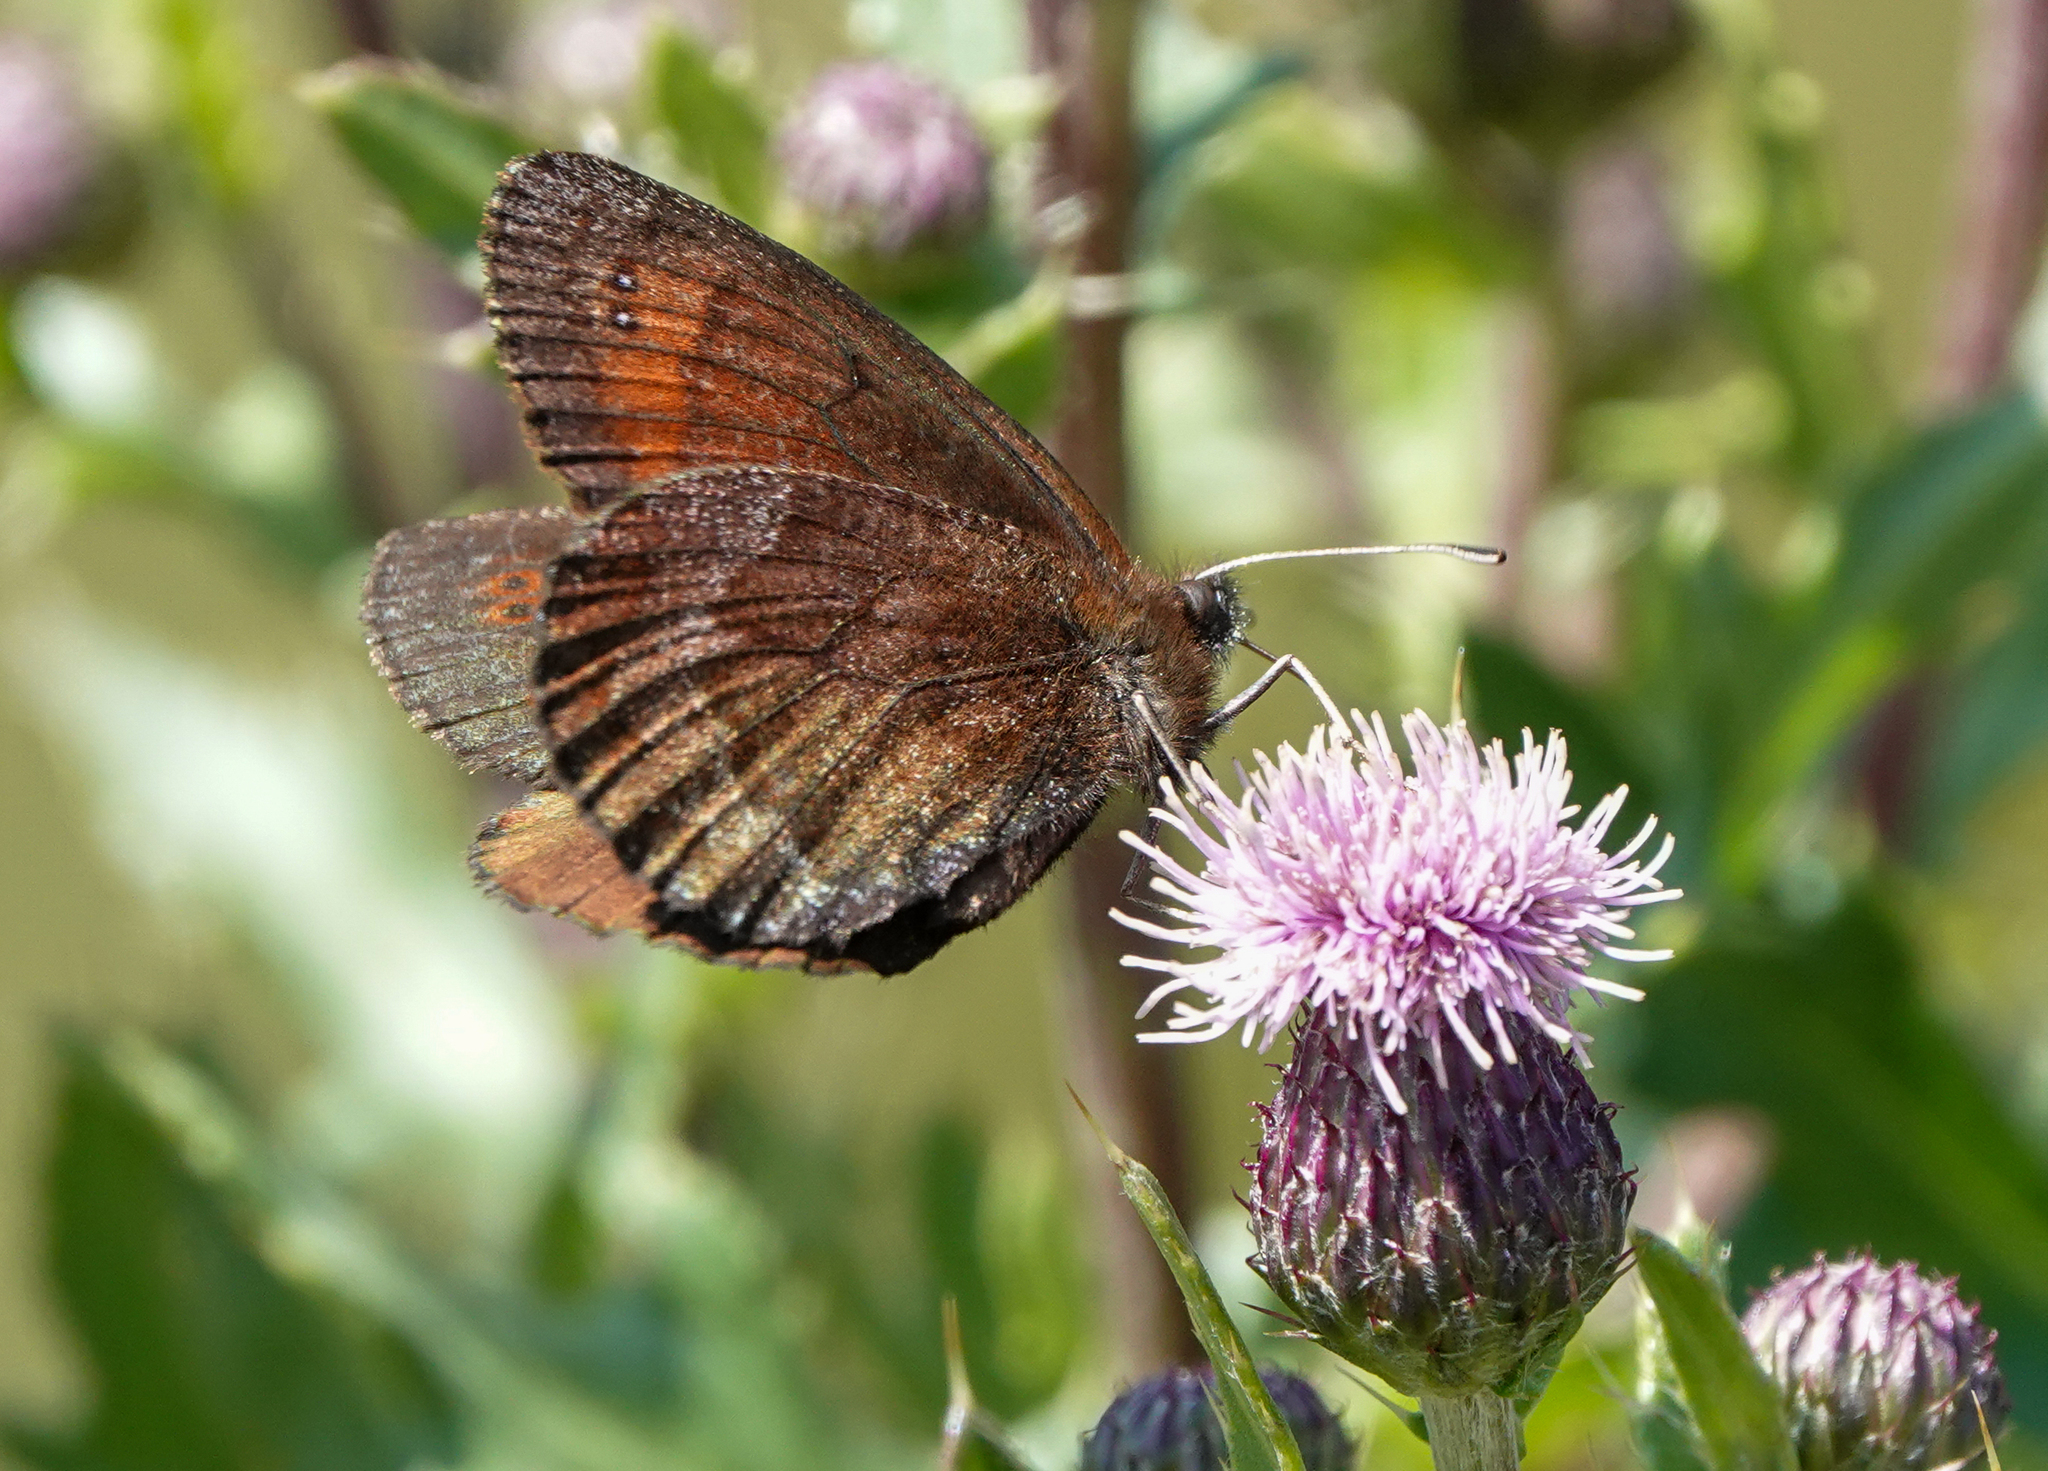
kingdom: Animalia
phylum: Arthropoda
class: Insecta
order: Lepidoptera
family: Nymphalidae
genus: Erebia
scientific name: Erebia pronoe
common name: Water ringlet
